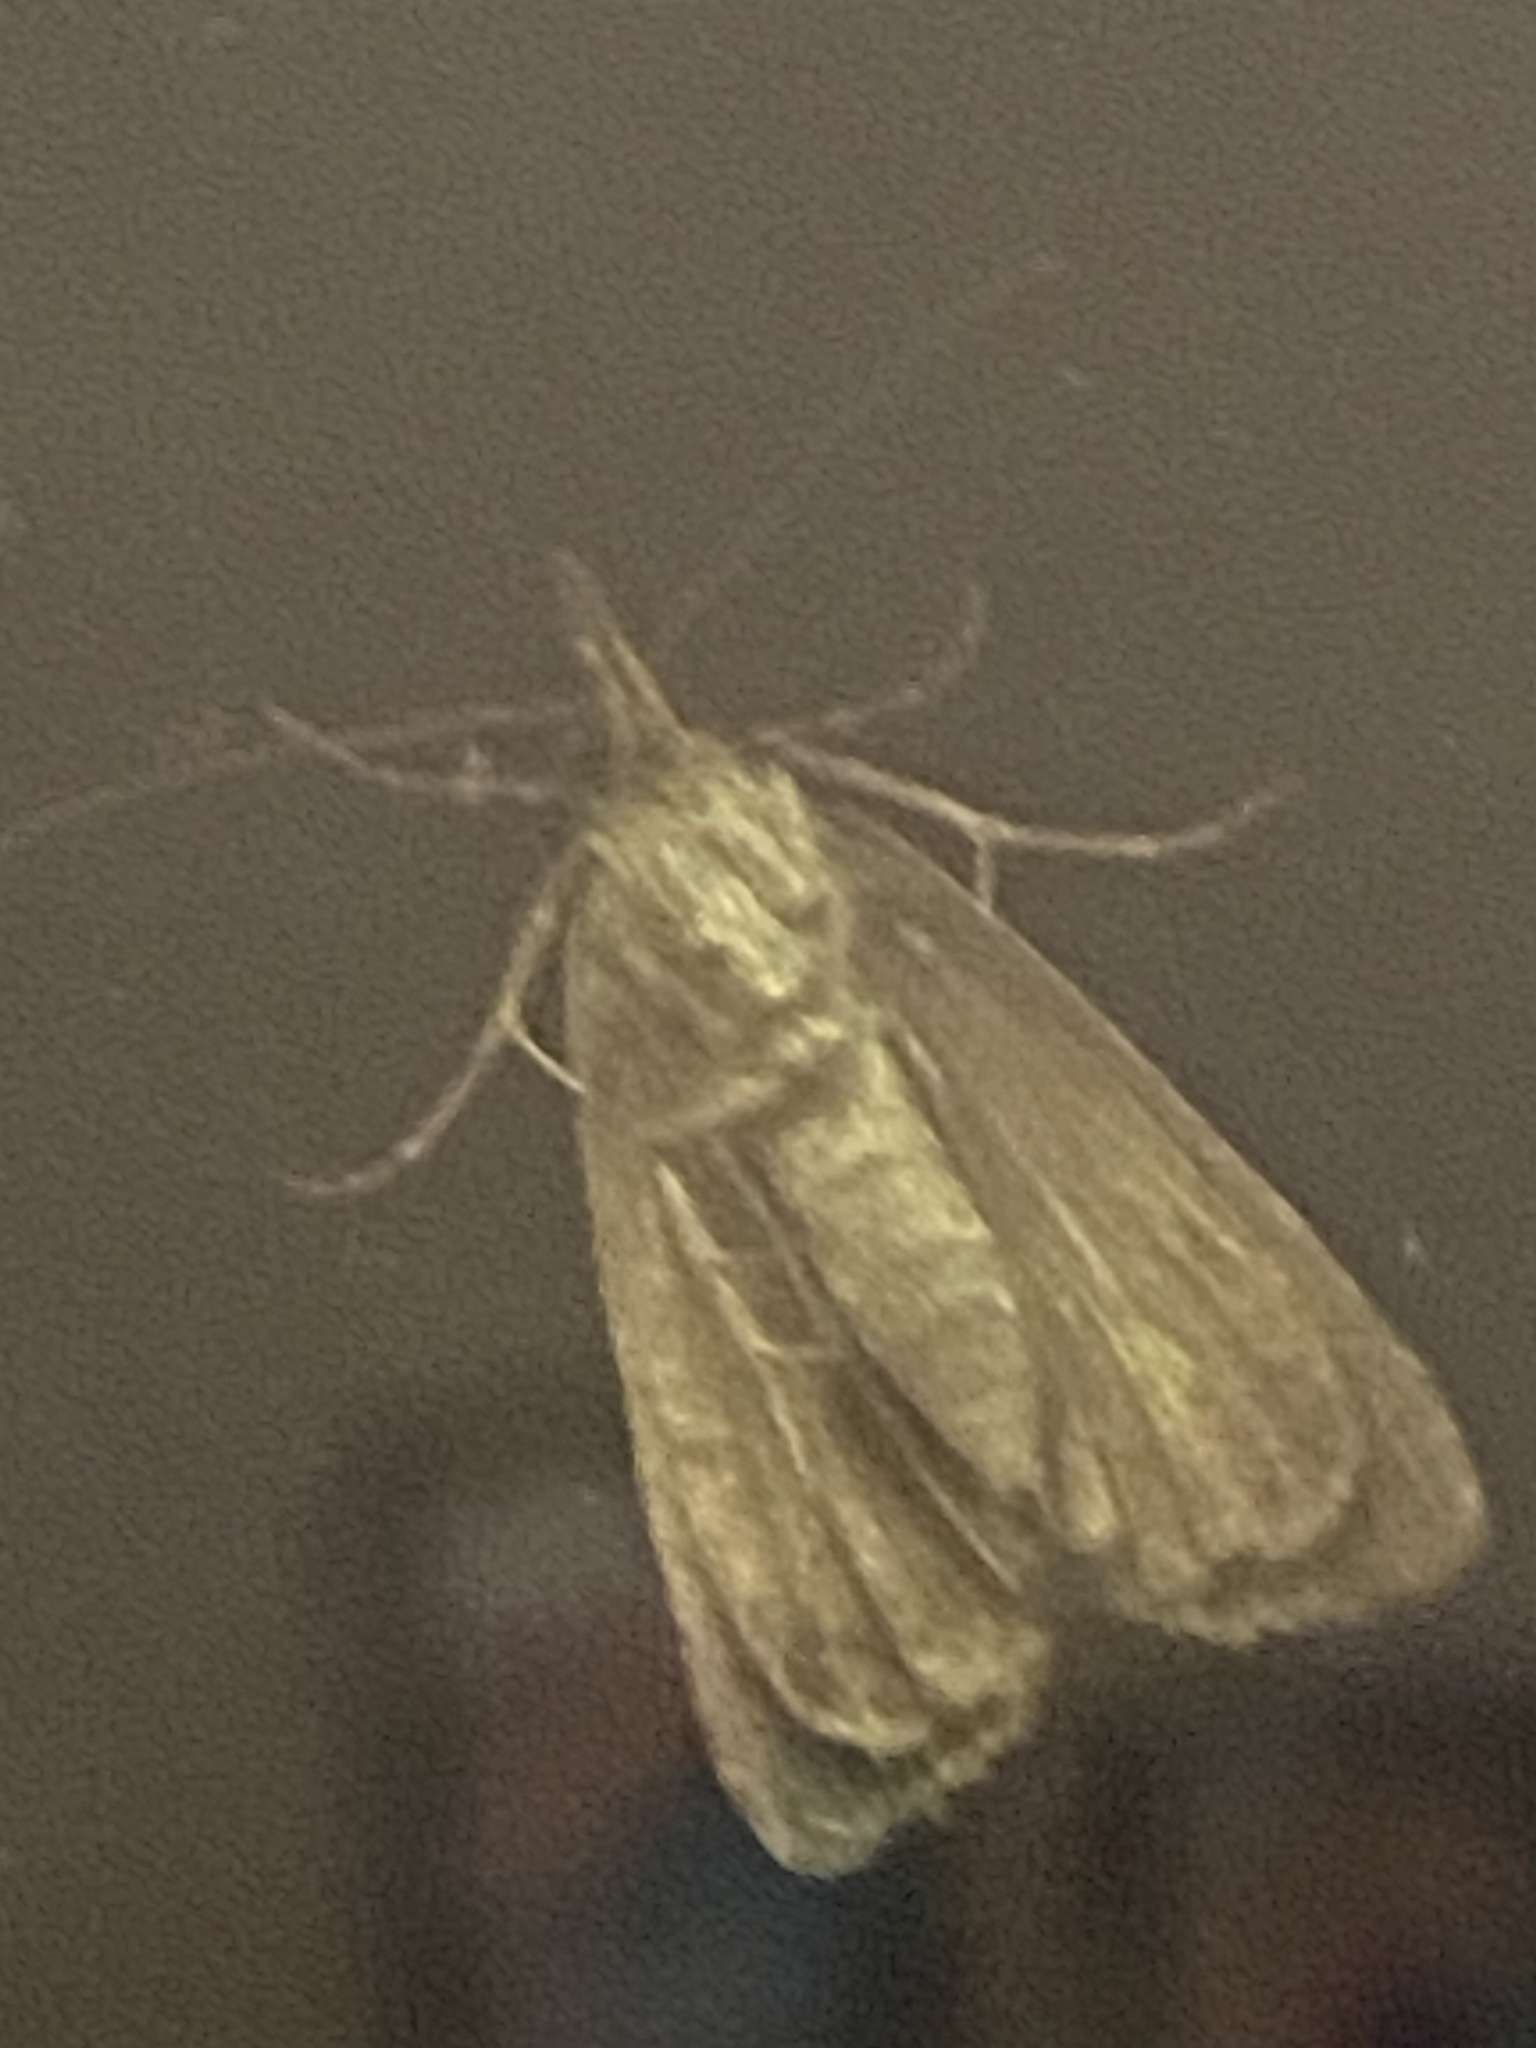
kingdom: Animalia
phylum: Arthropoda
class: Insecta
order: Lepidoptera
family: Erebidae
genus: Hypena
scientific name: Hypena scabra
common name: Green cloverworm
